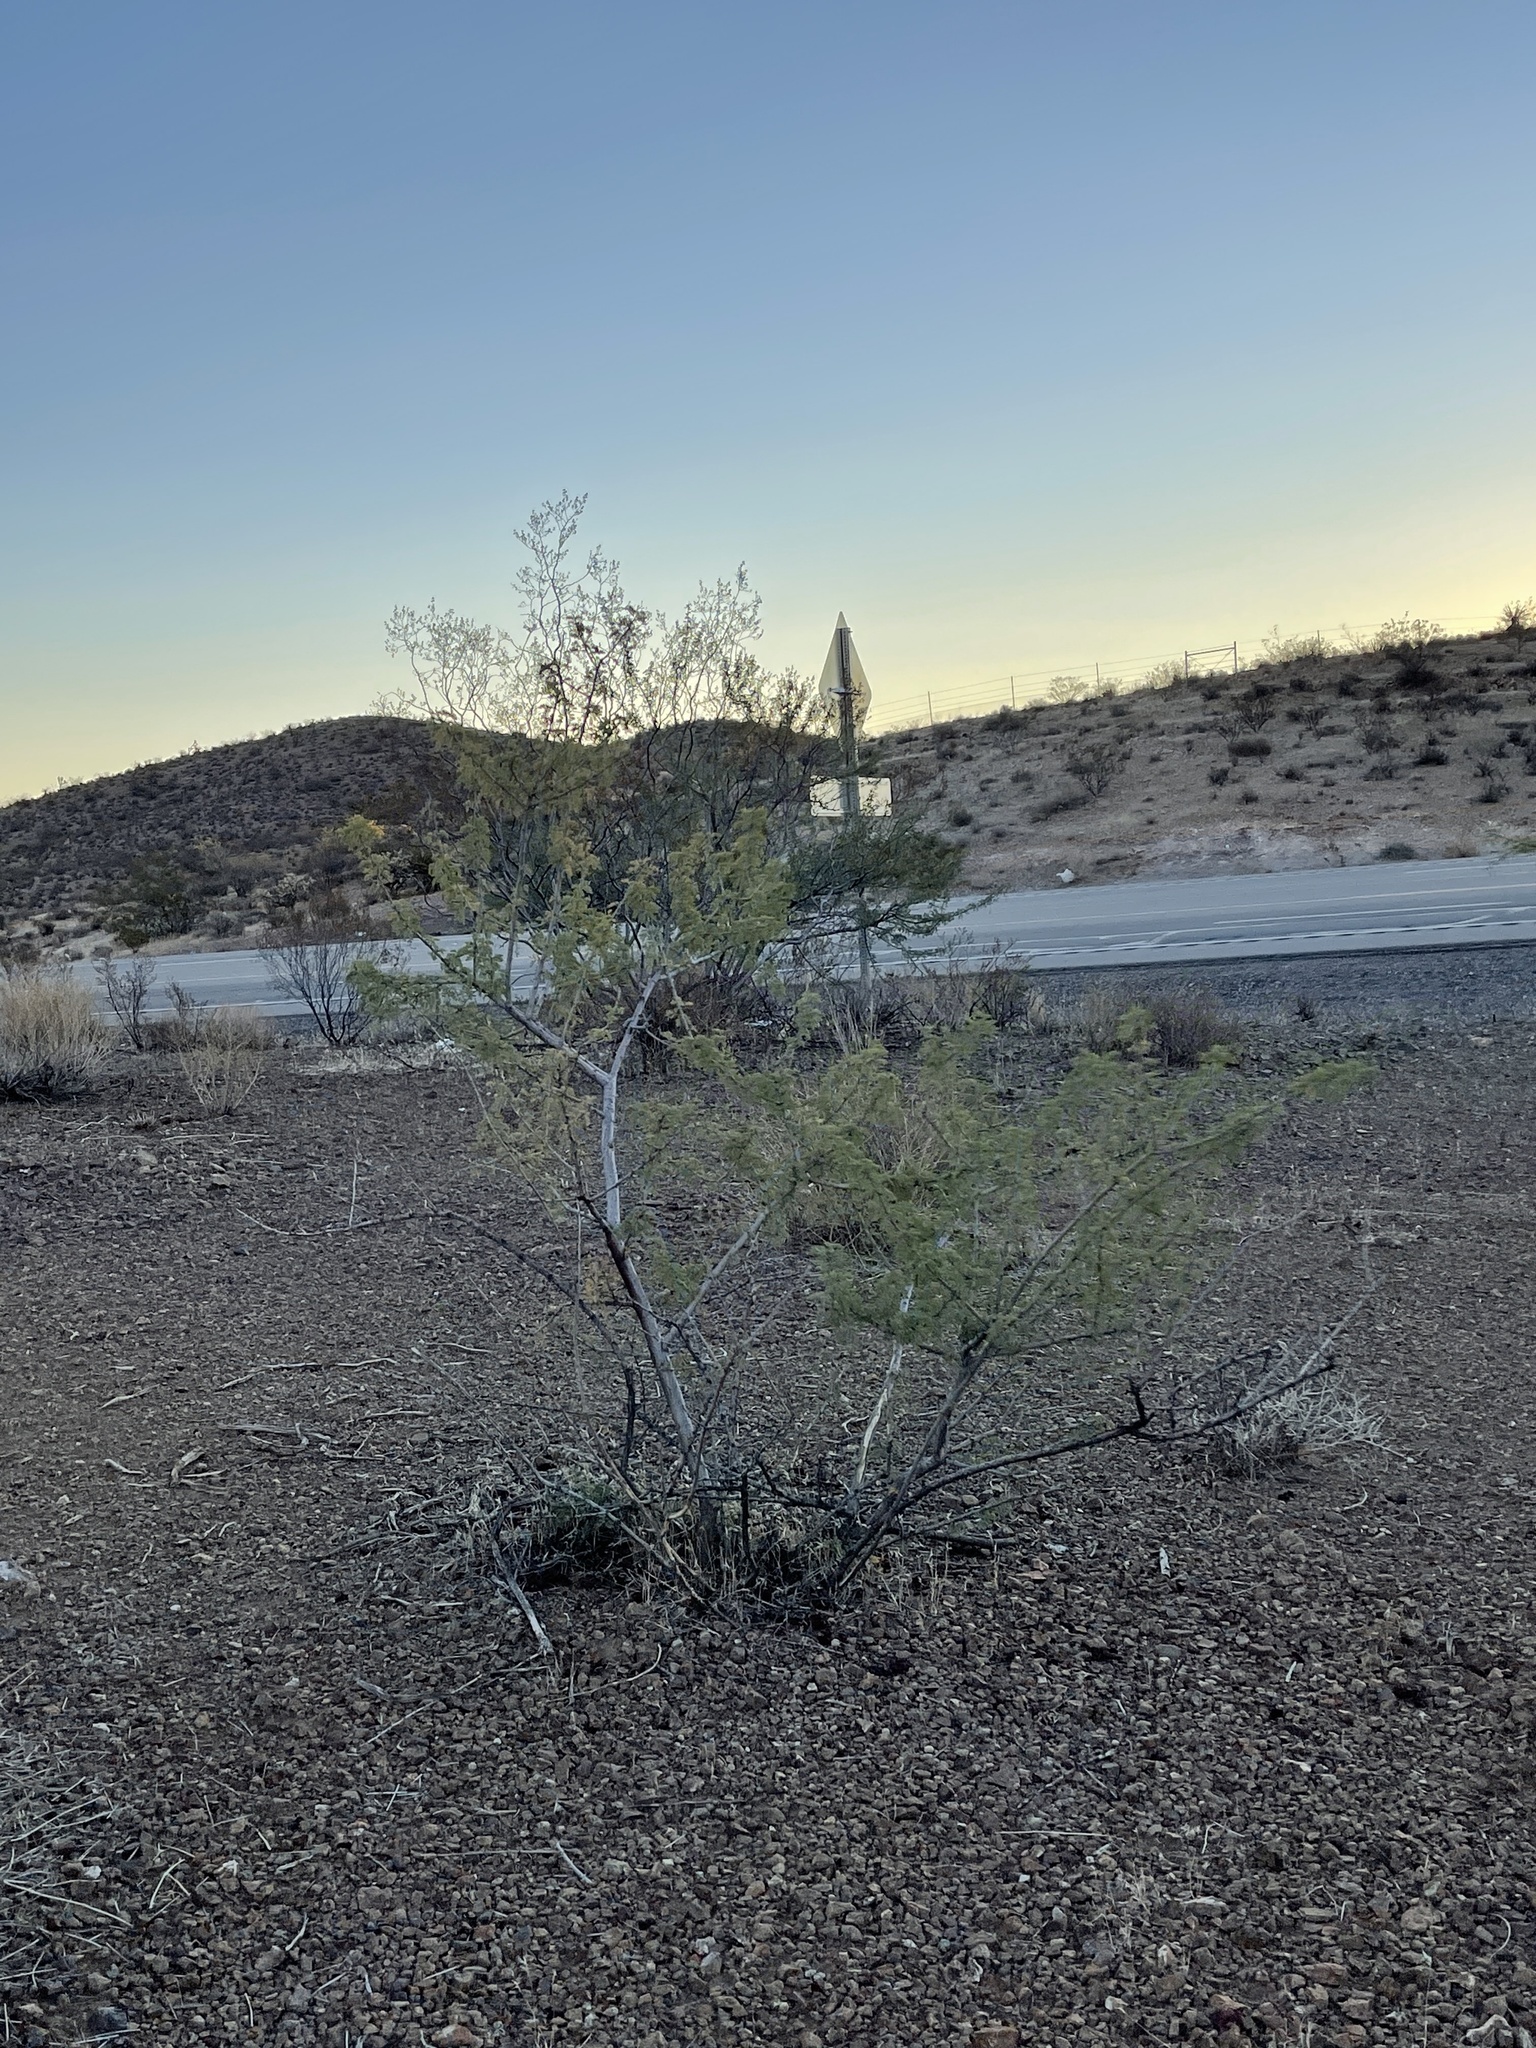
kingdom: Plantae
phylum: Tracheophyta
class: Magnoliopsida
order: Fabales
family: Fabaceae
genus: Senegalia
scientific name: Senegalia greggii
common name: Texas-mimosa
